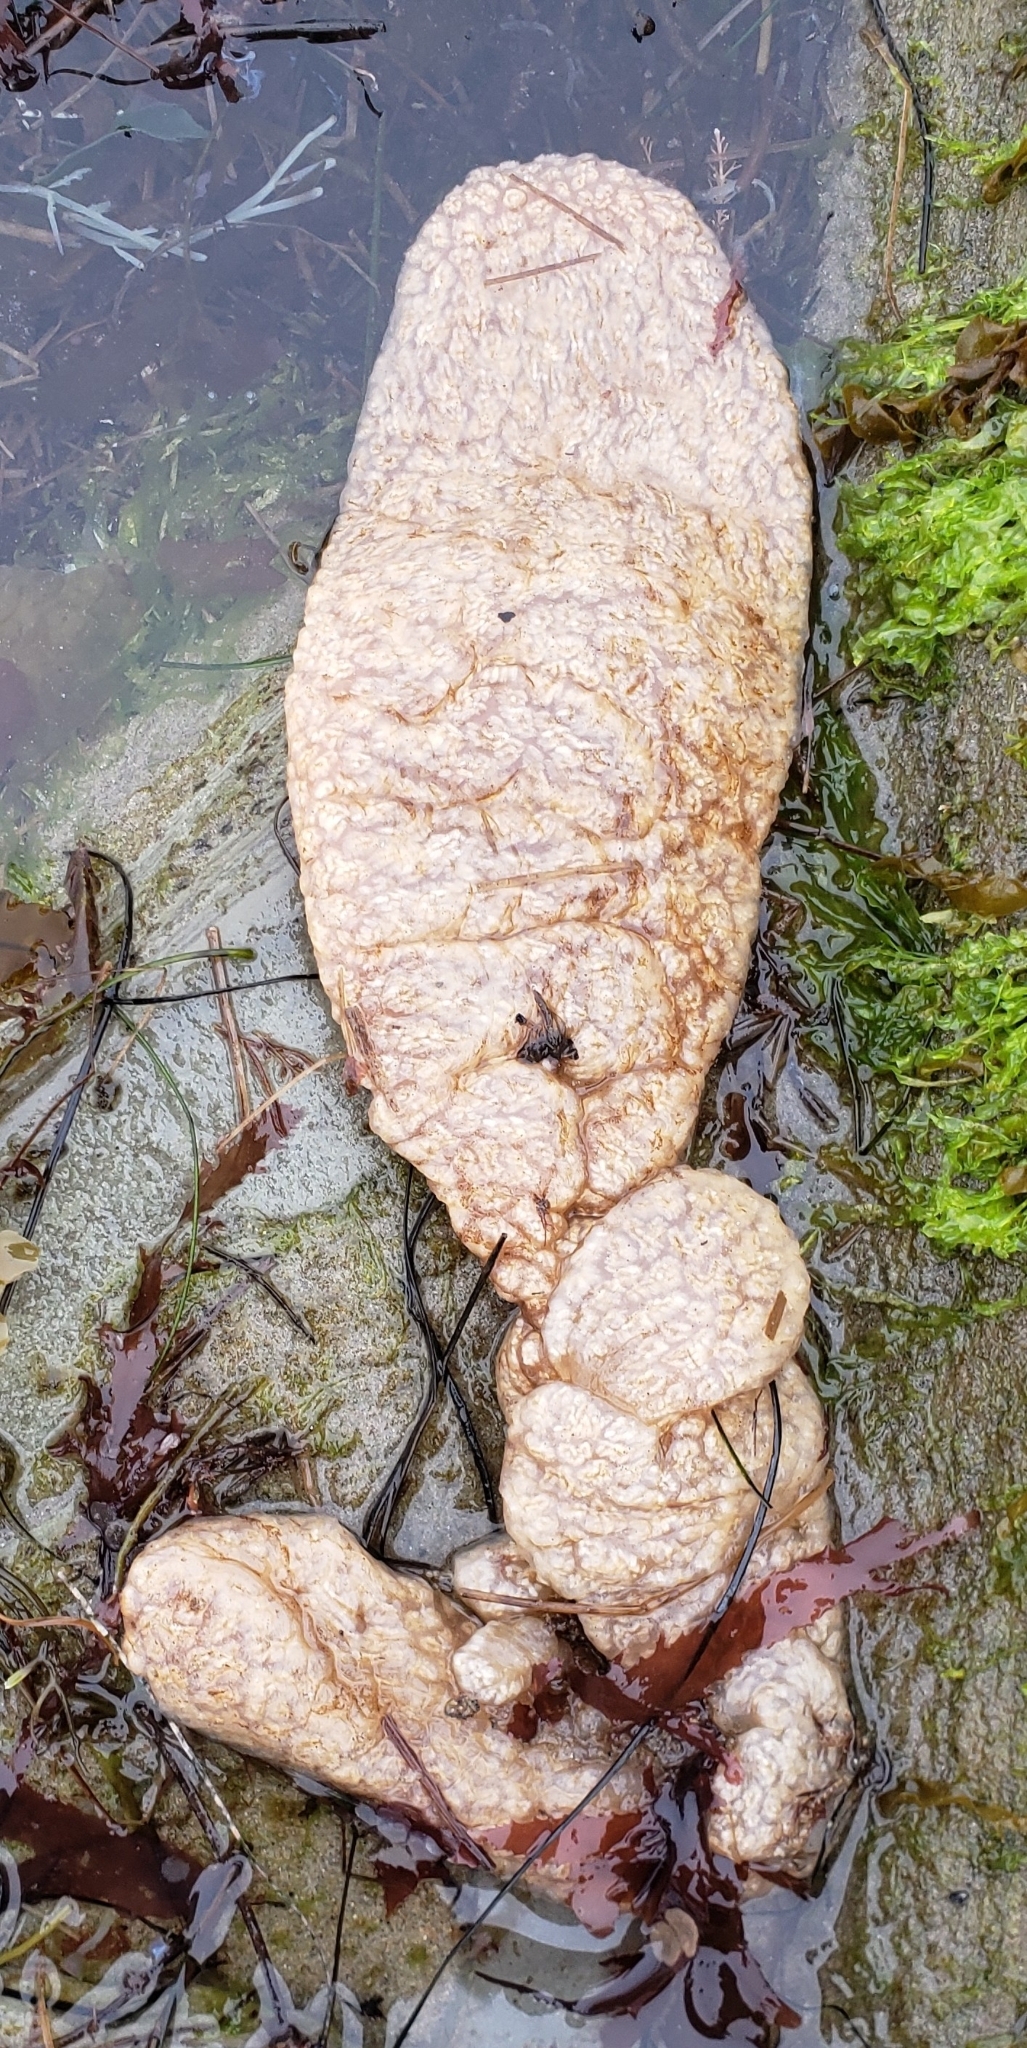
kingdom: Animalia
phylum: Chordata
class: Ascidiacea
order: Aplousobranchia
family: Polyclinidae
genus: Aplidium
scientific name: Aplidium californicum
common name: Sea pork
